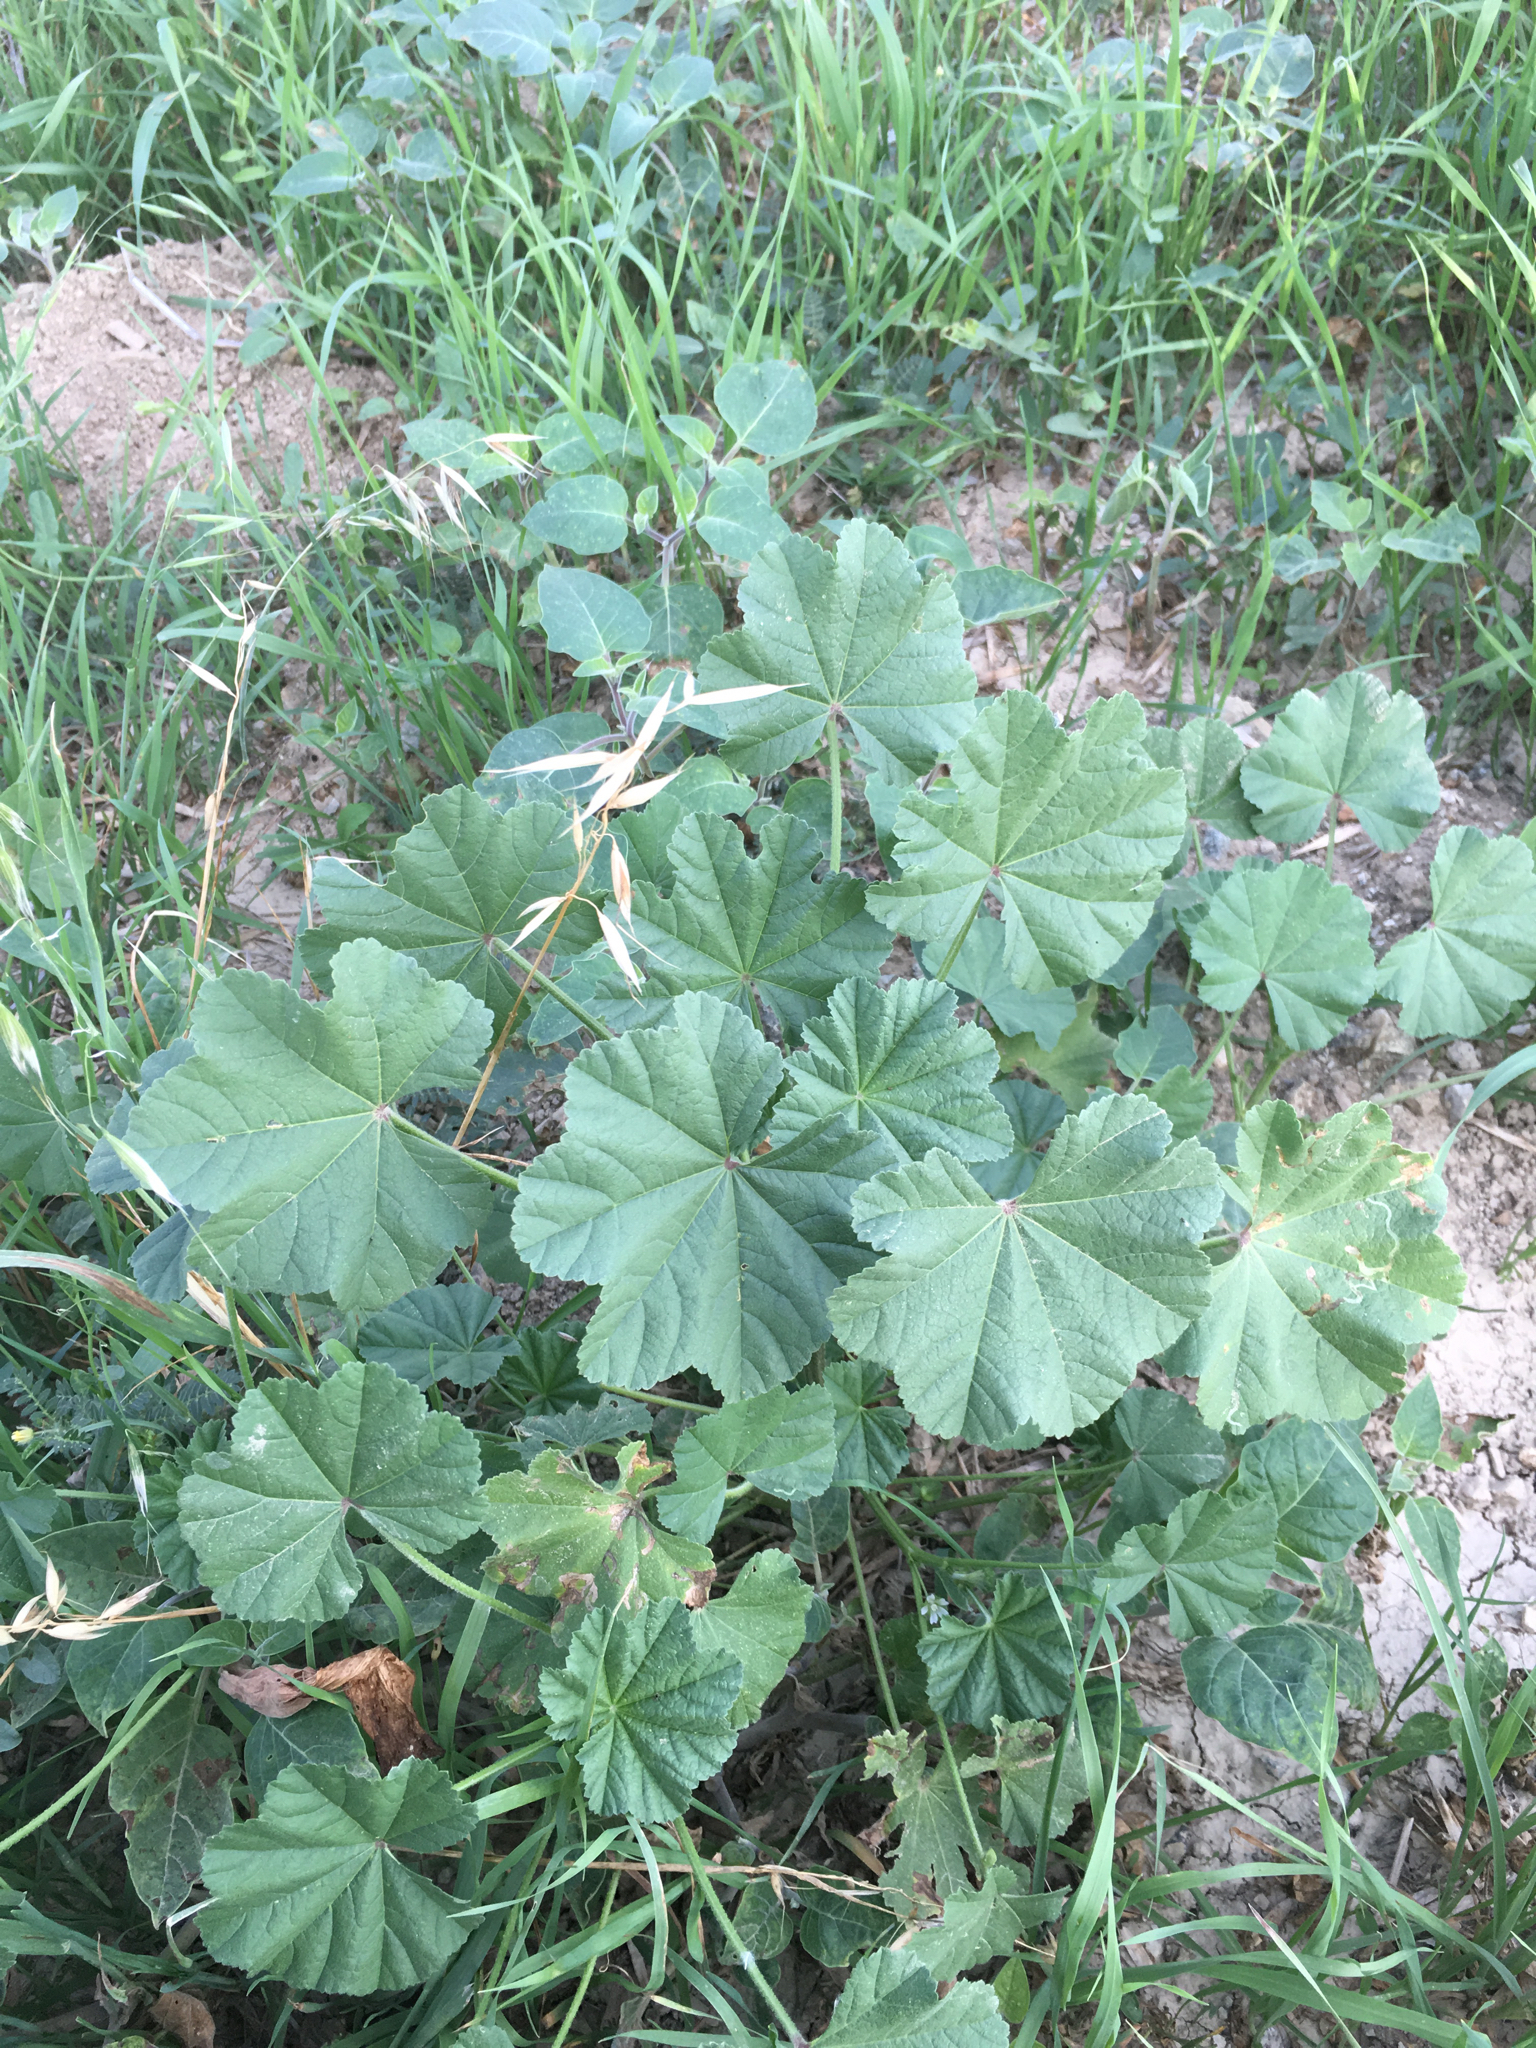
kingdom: Plantae
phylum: Tracheophyta
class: Magnoliopsida
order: Malvales
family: Malvaceae
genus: Malva
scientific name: Malva parviflora
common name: Least mallow
